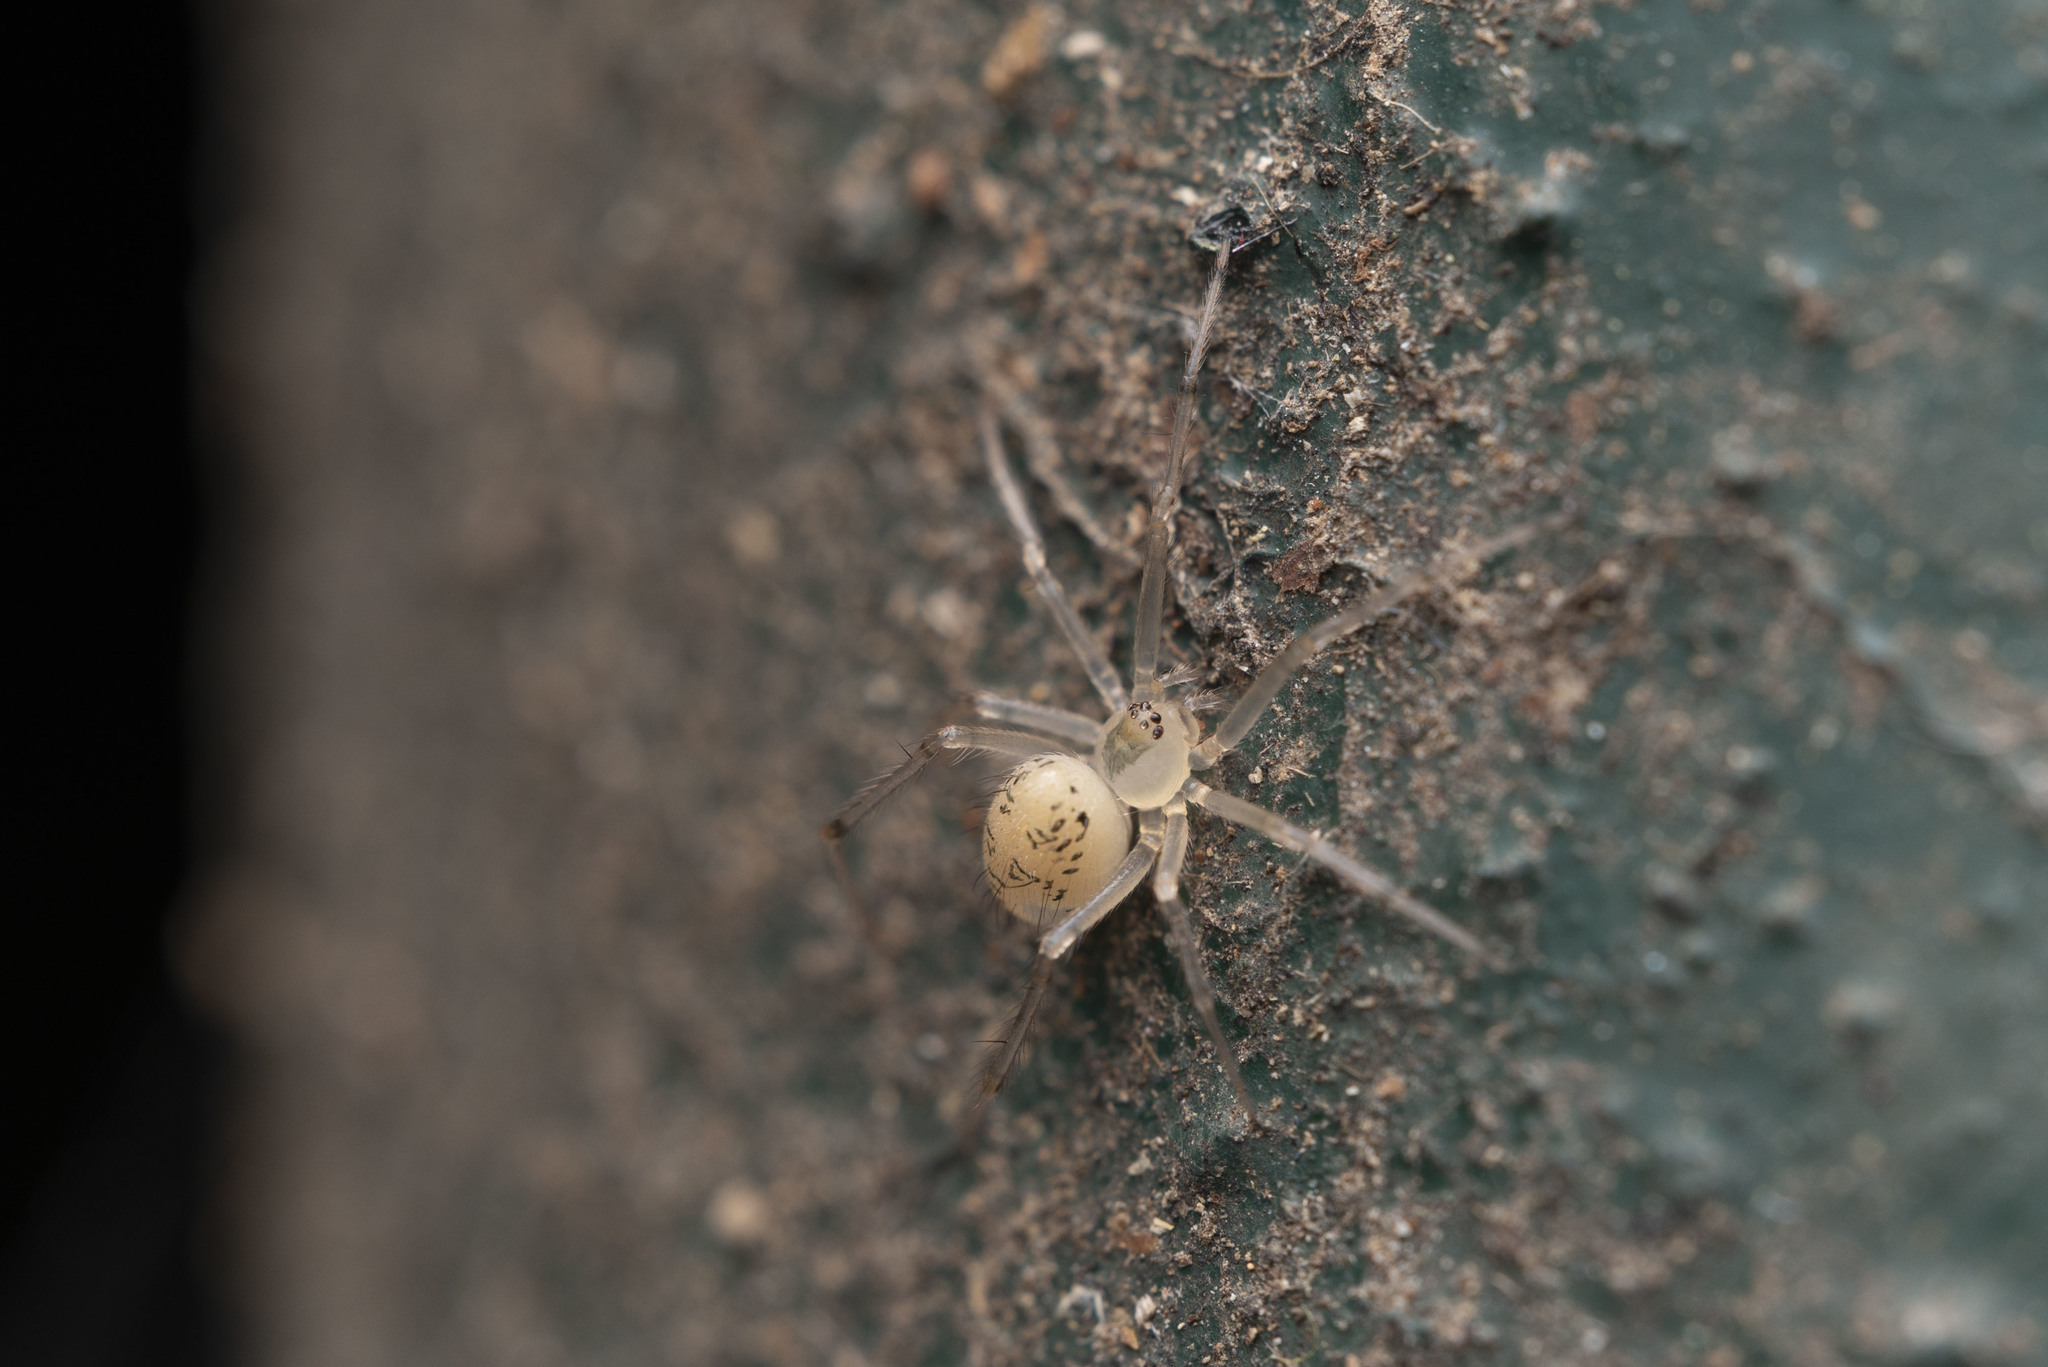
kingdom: Animalia
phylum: Arthropoda
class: Arachnida
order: Araneae
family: Theridiidae
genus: Phycosoma
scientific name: Phycosoma digitula
